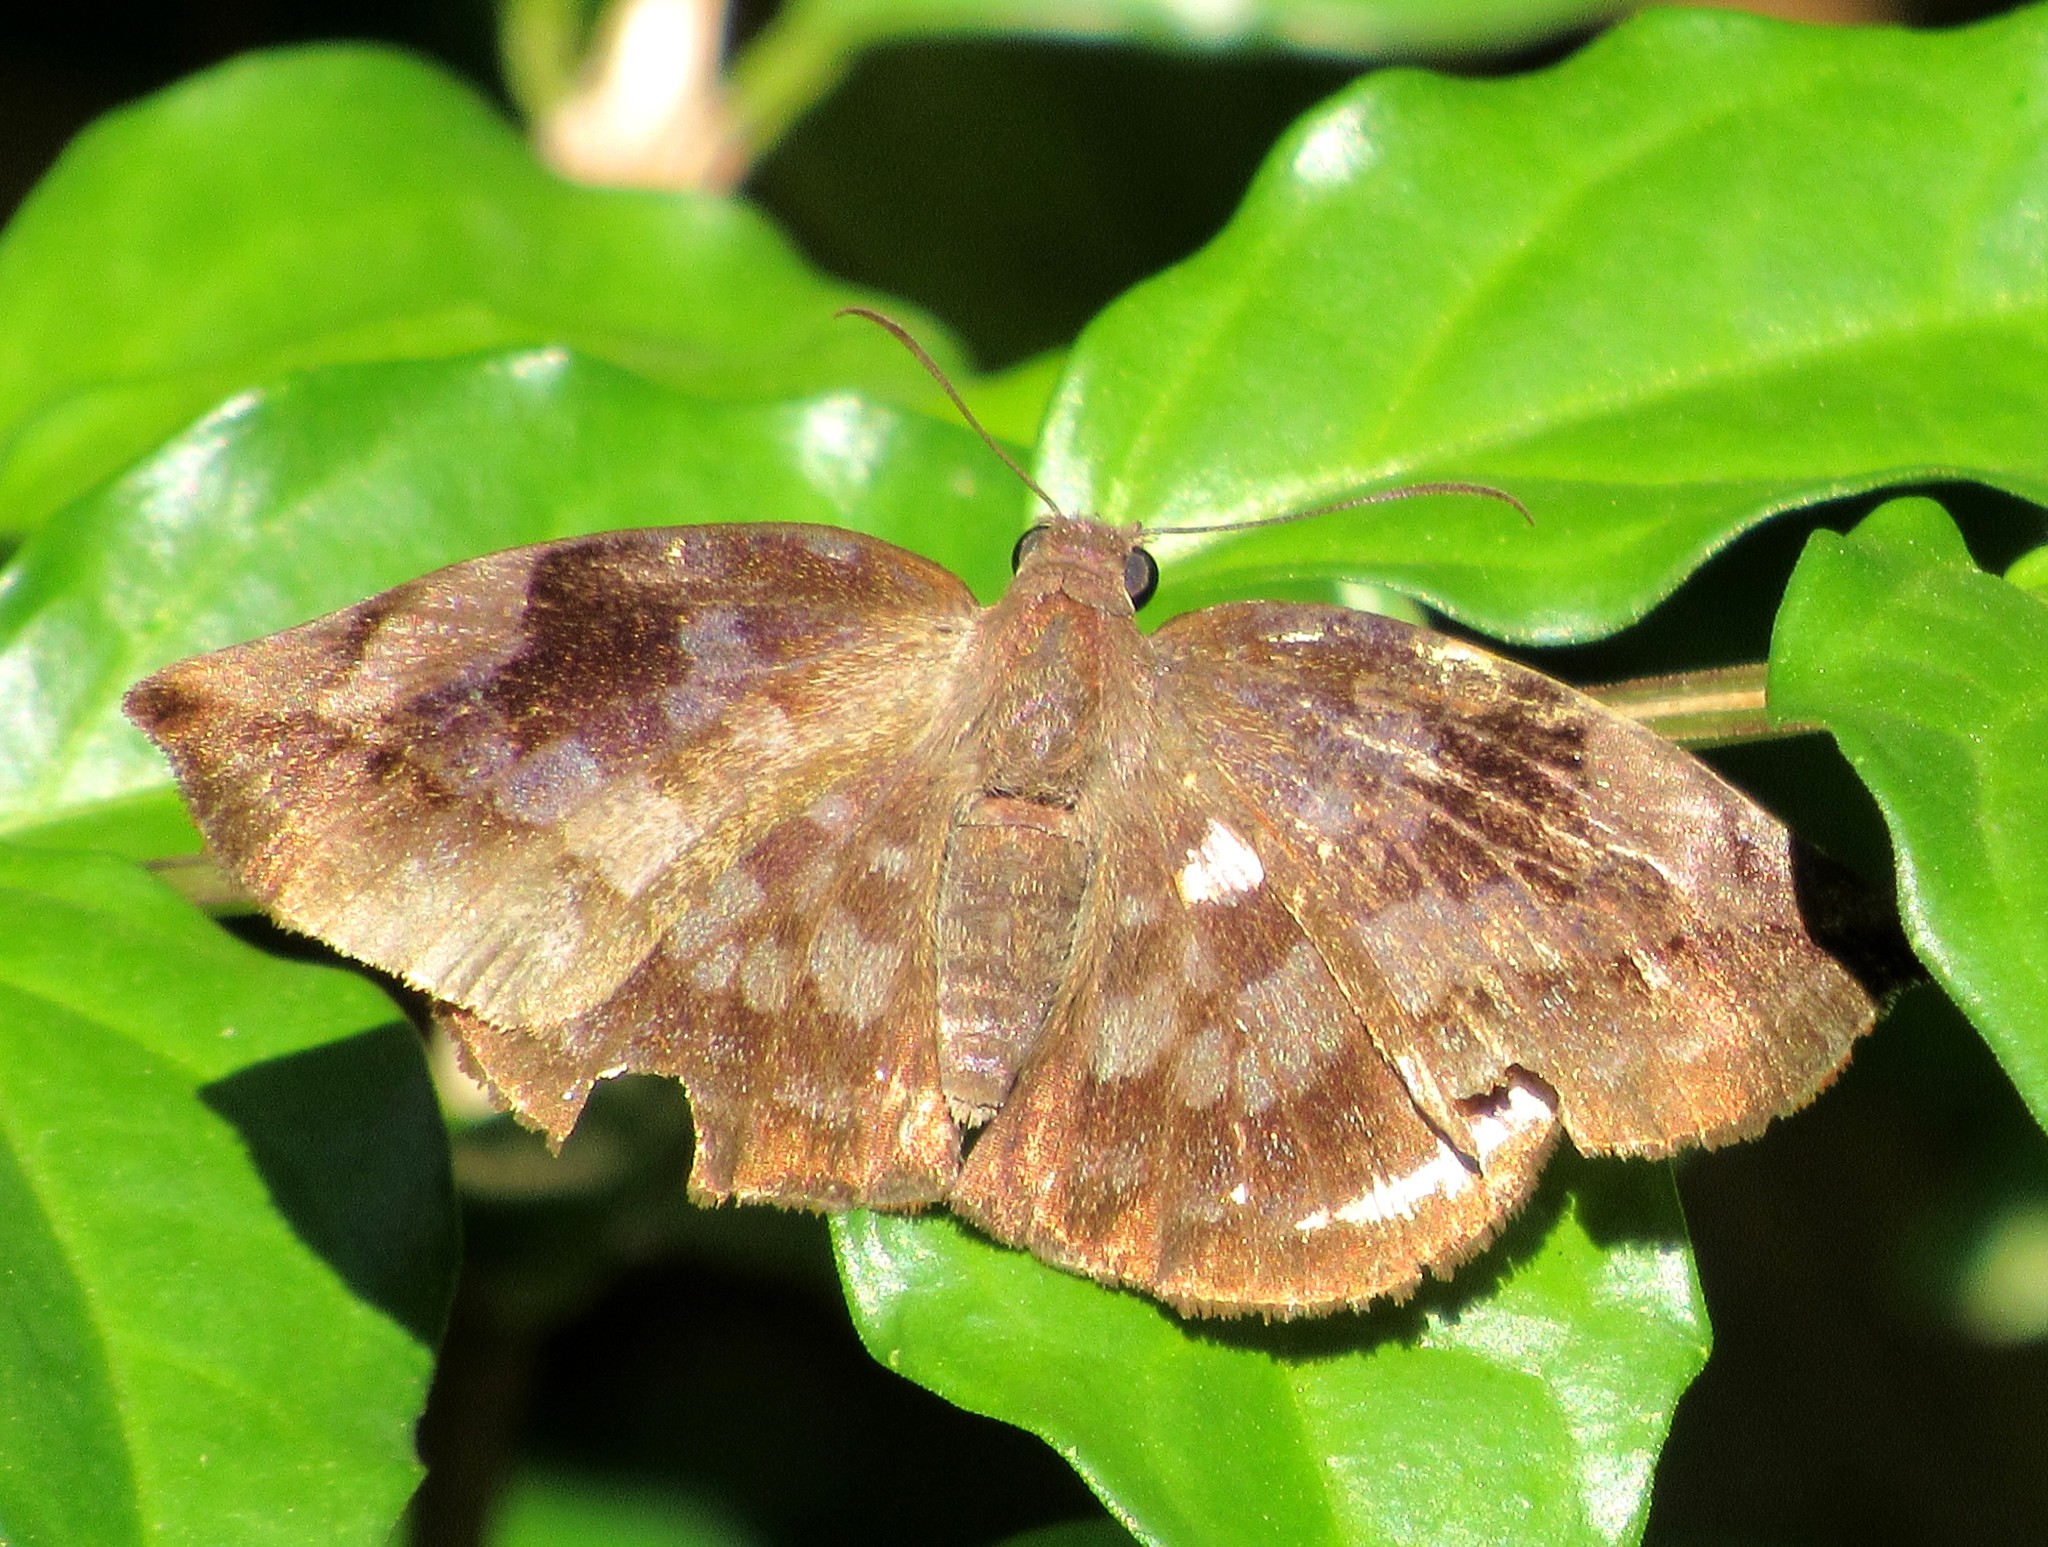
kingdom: Animalia
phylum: Arthropoda
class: Insecta
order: Lepidoptera
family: Hesperiidae
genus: Achlyodes
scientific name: Achlyodes thraso
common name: Sickle-winged skipper
